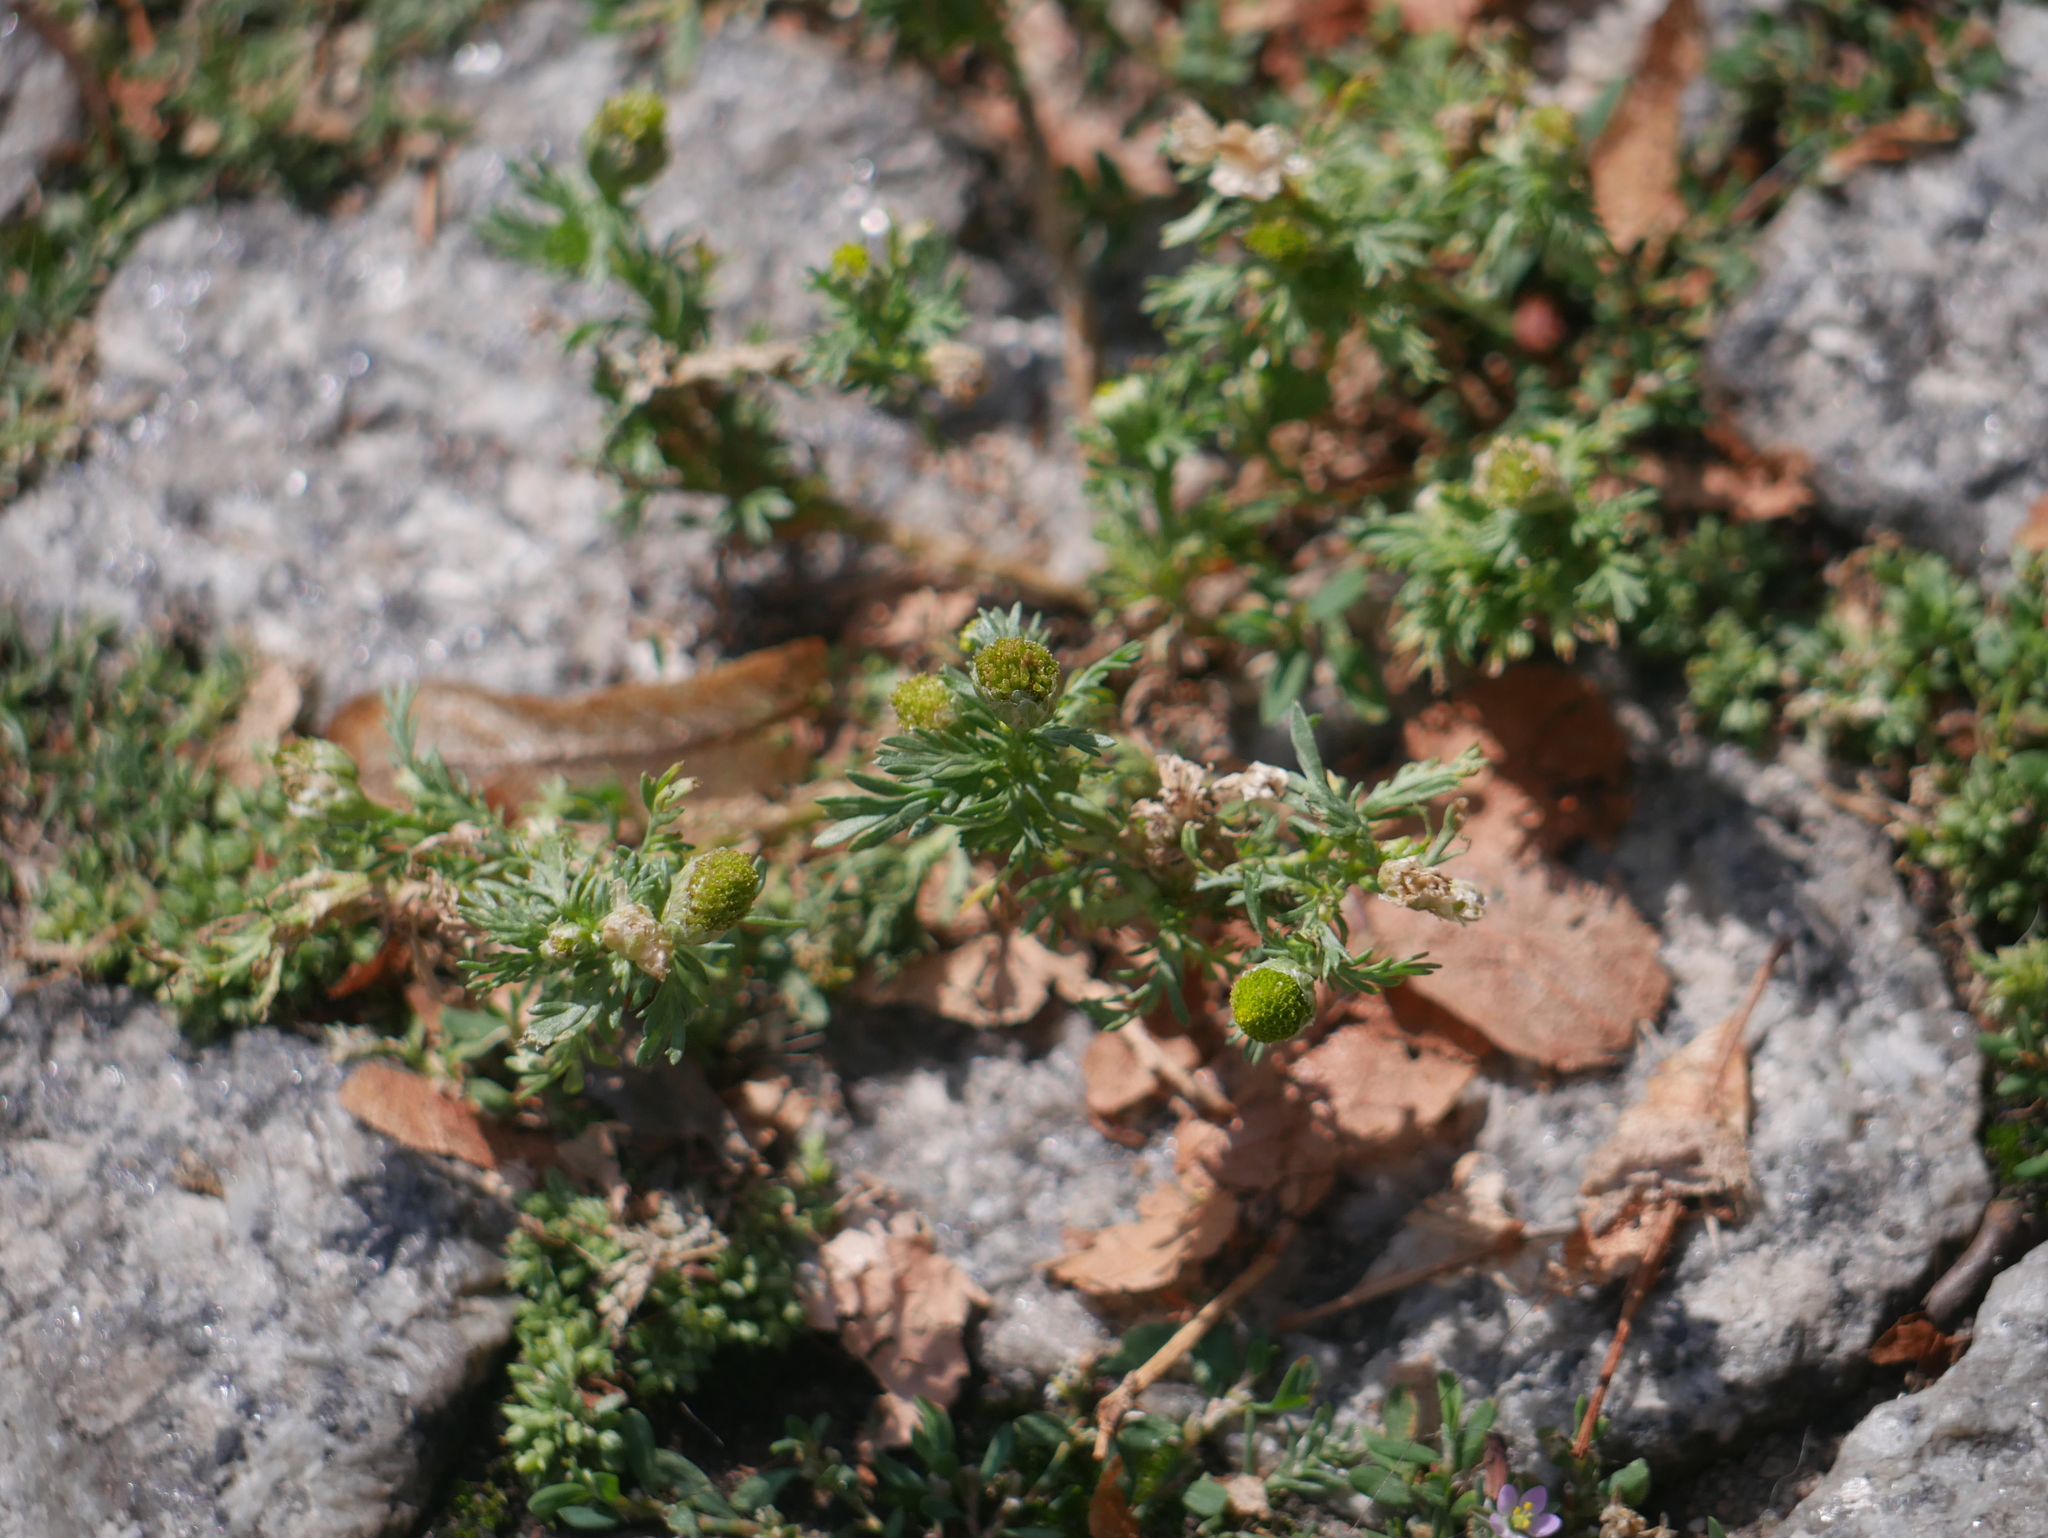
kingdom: Plantae
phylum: Tracheophyta
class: Magnoliopsida
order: Asterales
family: Asteraceae
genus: Matricaria
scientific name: Matricaria discoidea
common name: Disc mayweed
